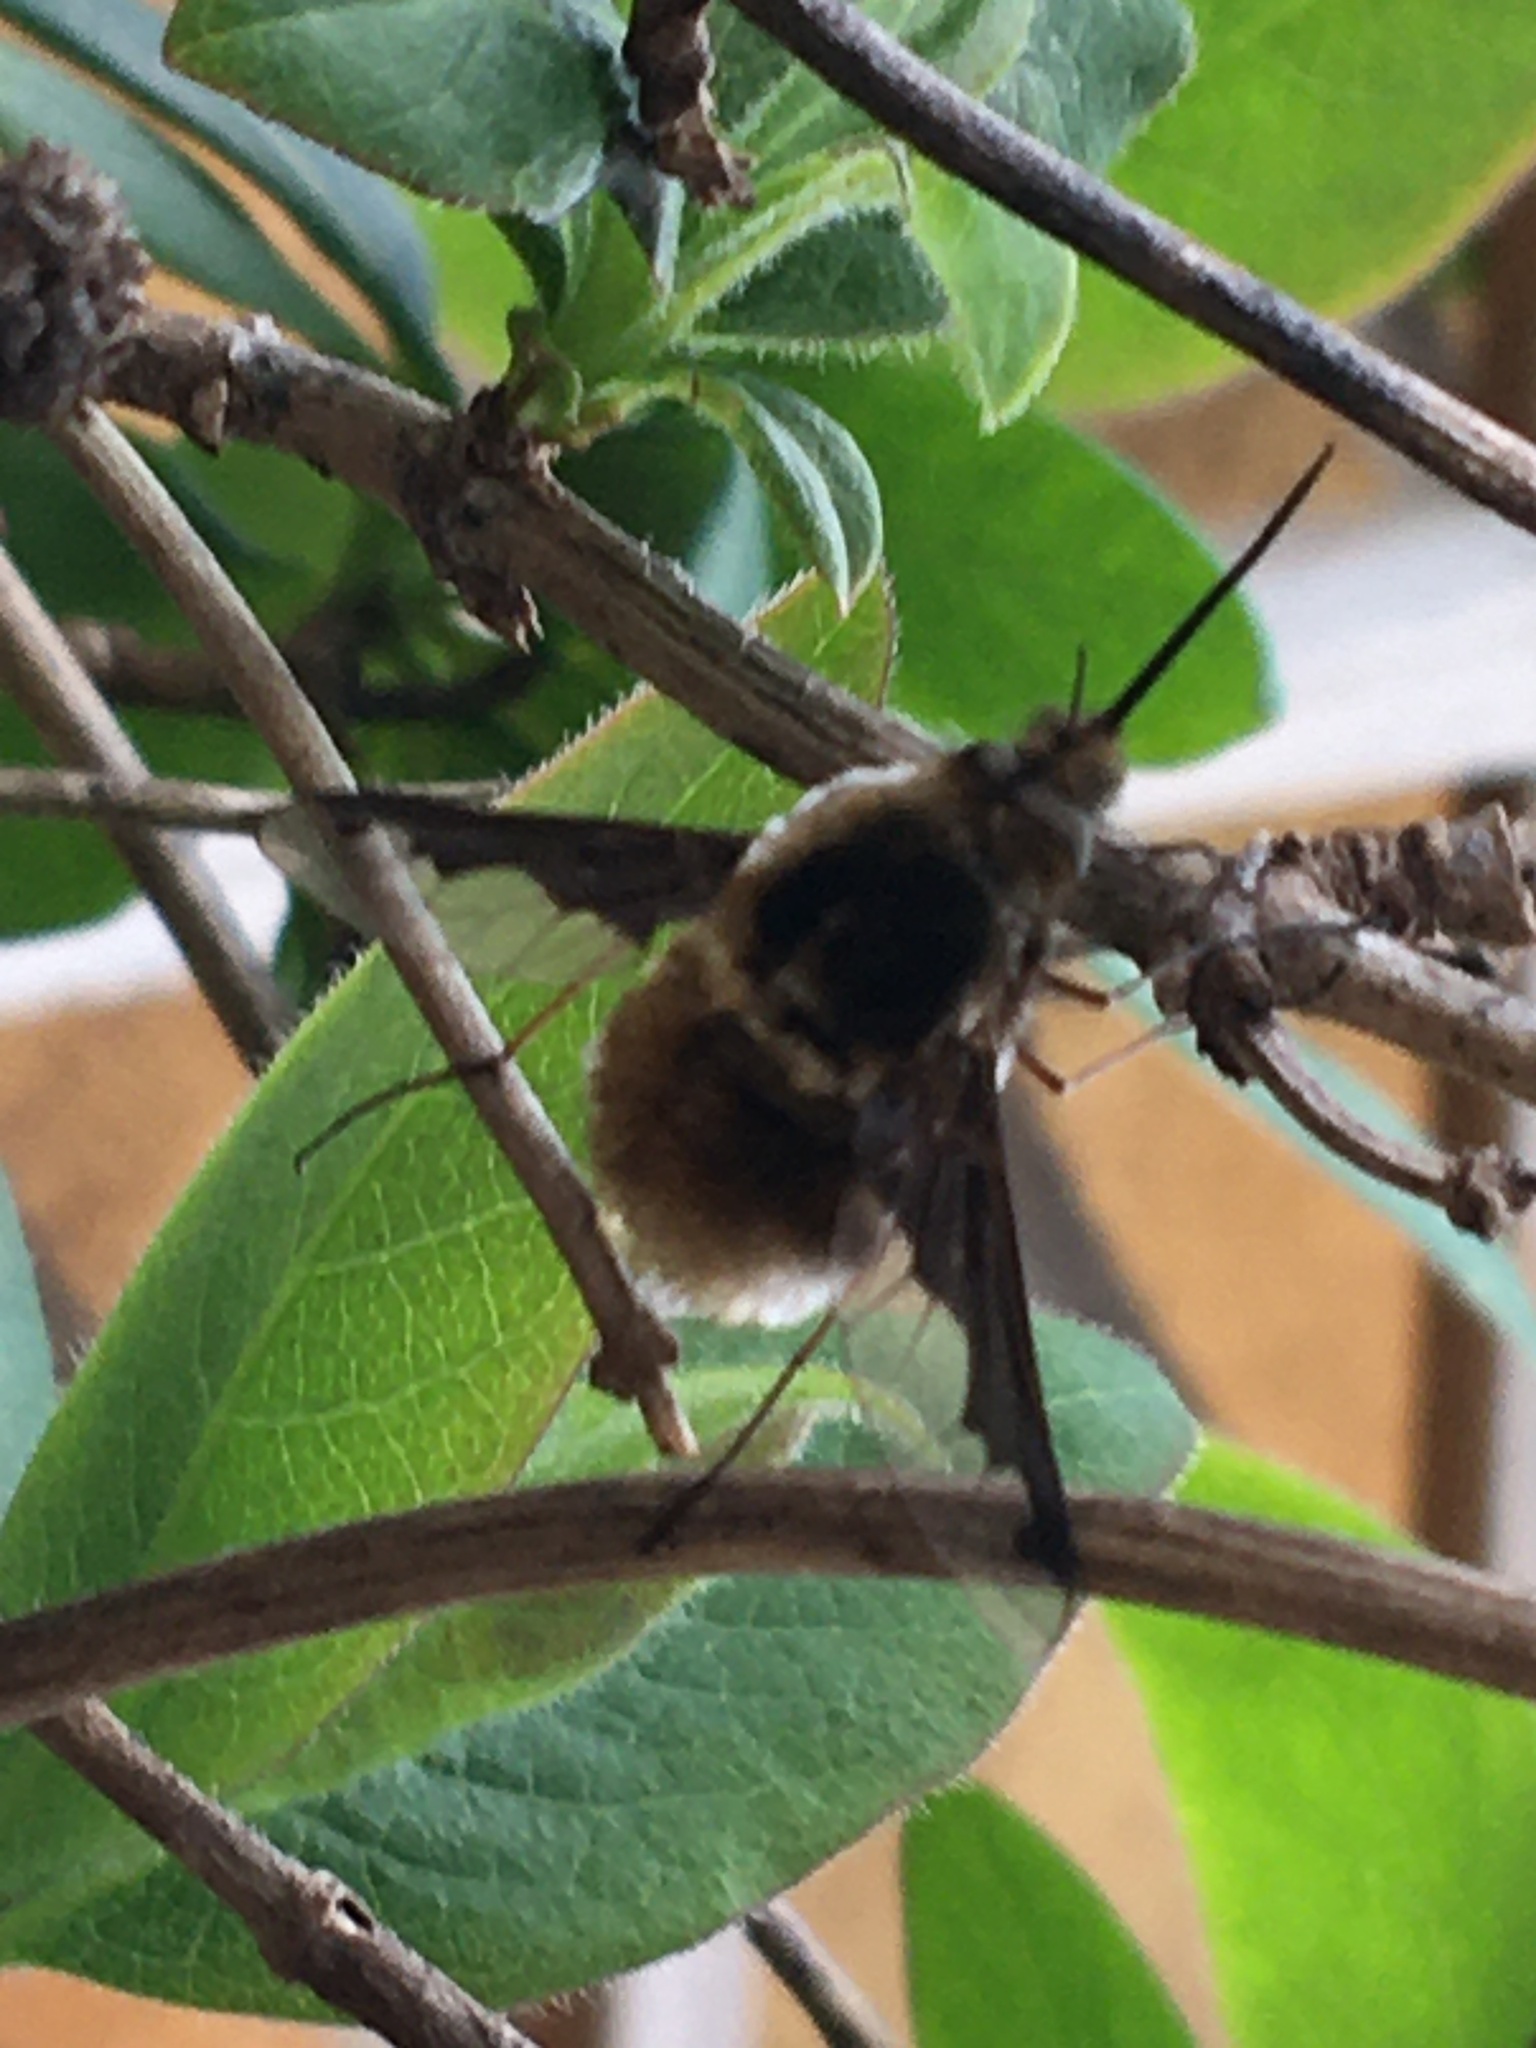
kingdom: Animalia
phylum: Arthropoda
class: Insecta
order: Diptera
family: Bombyliidae
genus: Bombylius
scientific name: Bombylius major
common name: Bee fly
